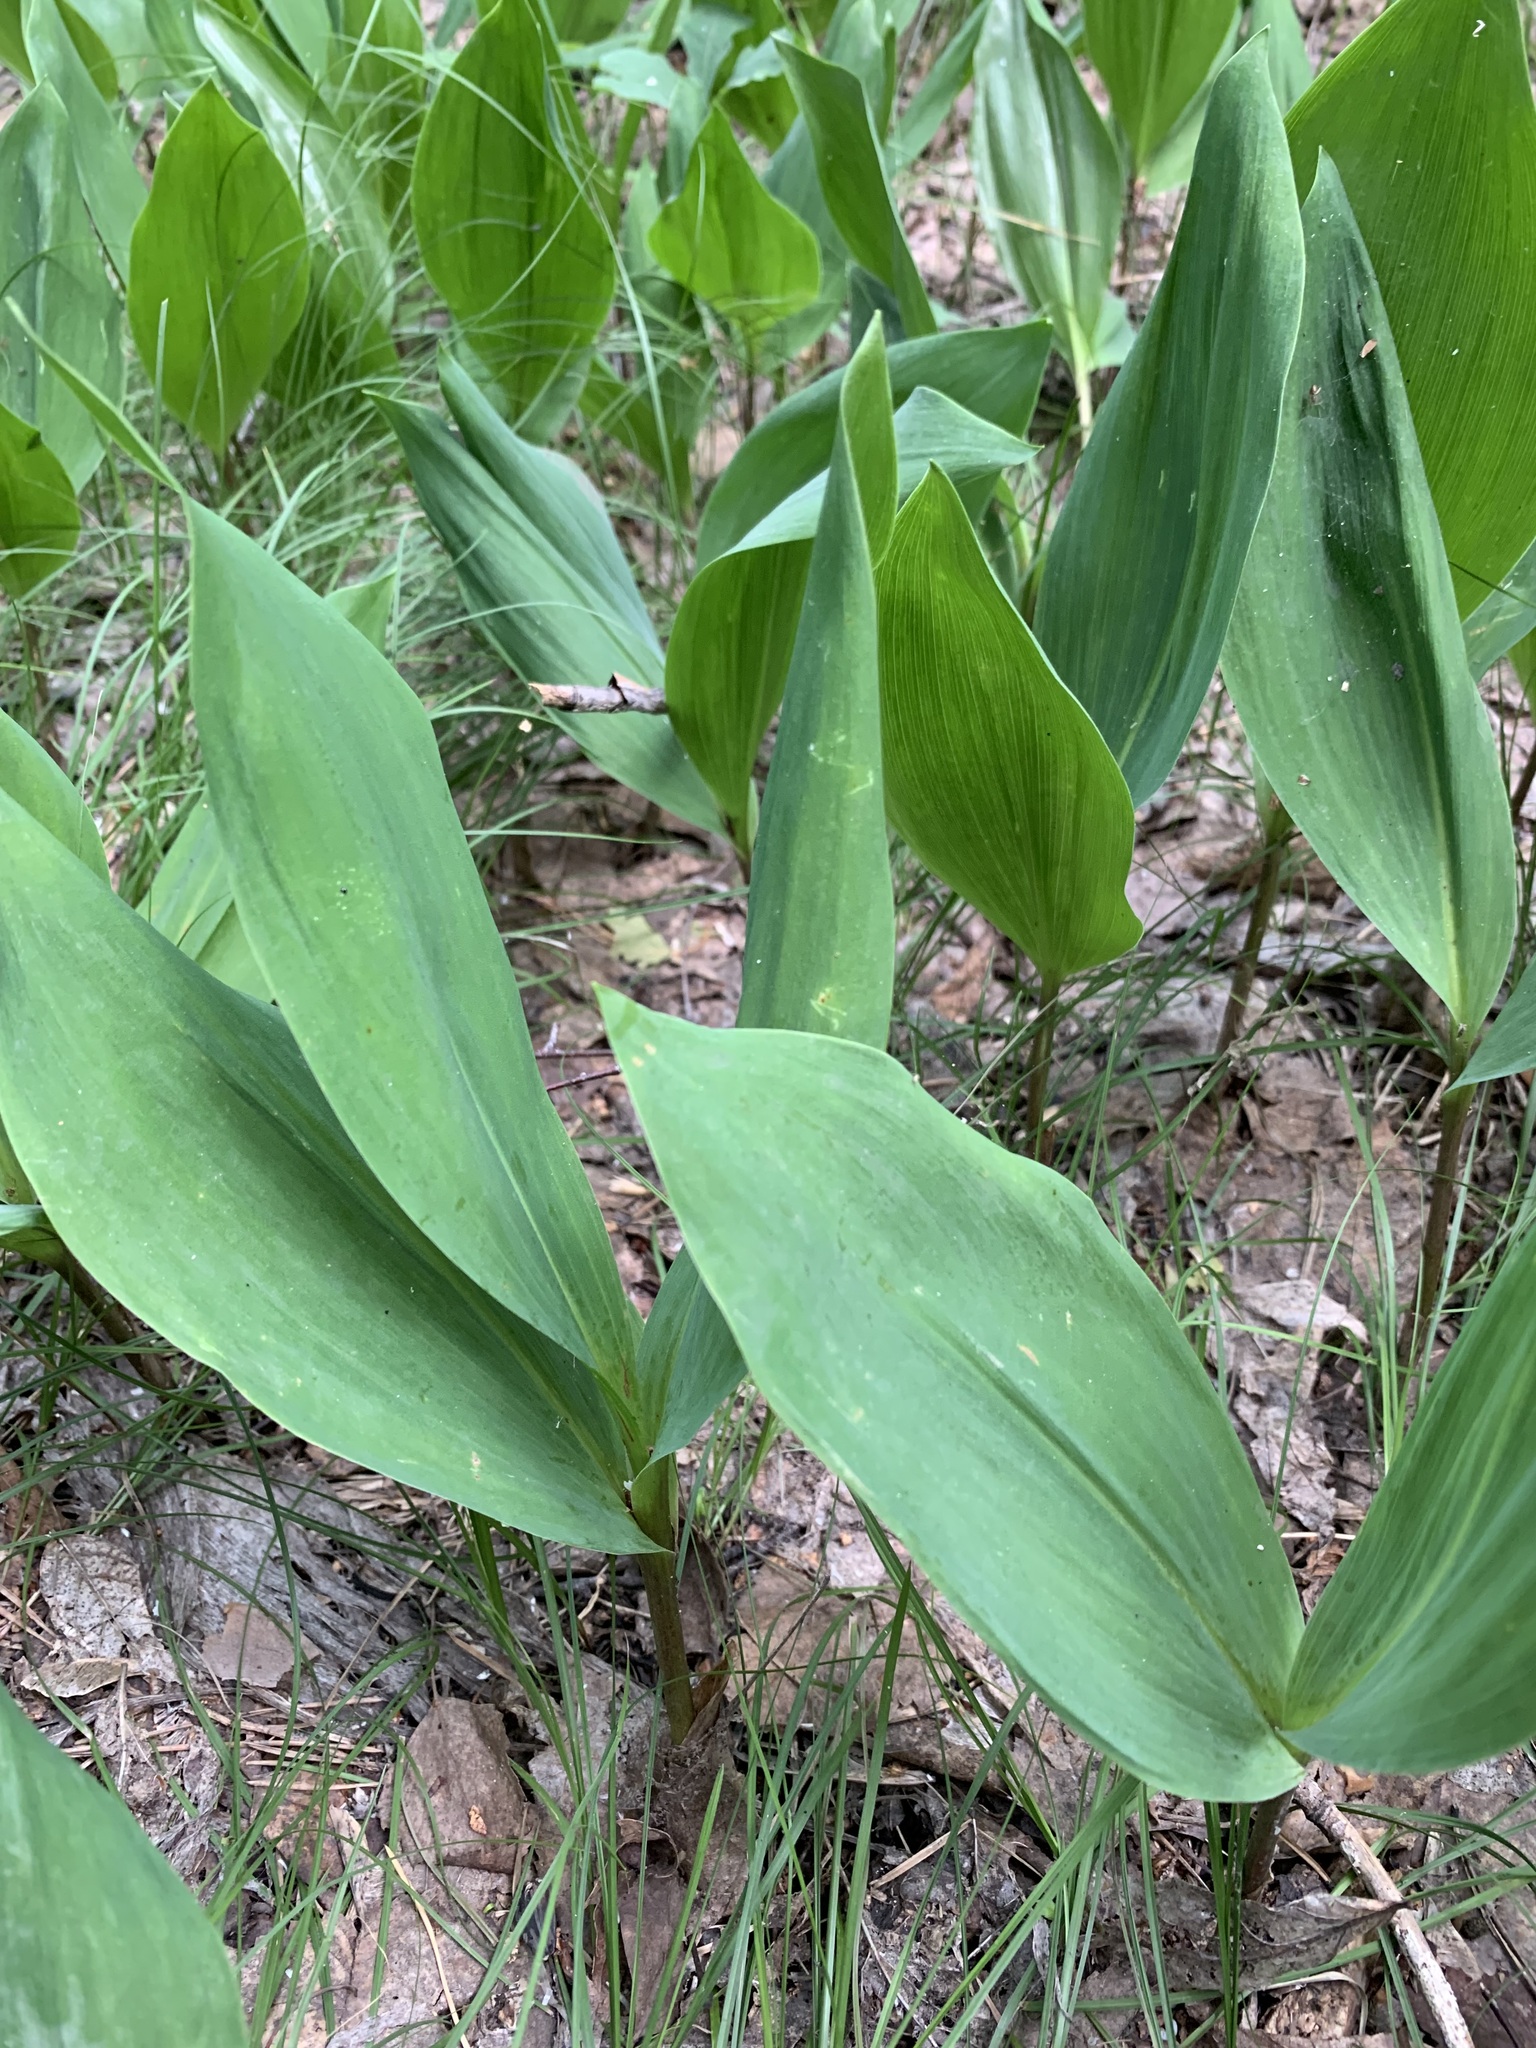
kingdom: Plantae
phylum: Tracheophyta
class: Liliopsida
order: Asparagales
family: Asparagaceae
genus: Convallaria
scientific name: Convallaria majalis
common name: Lily-of-the-valley
